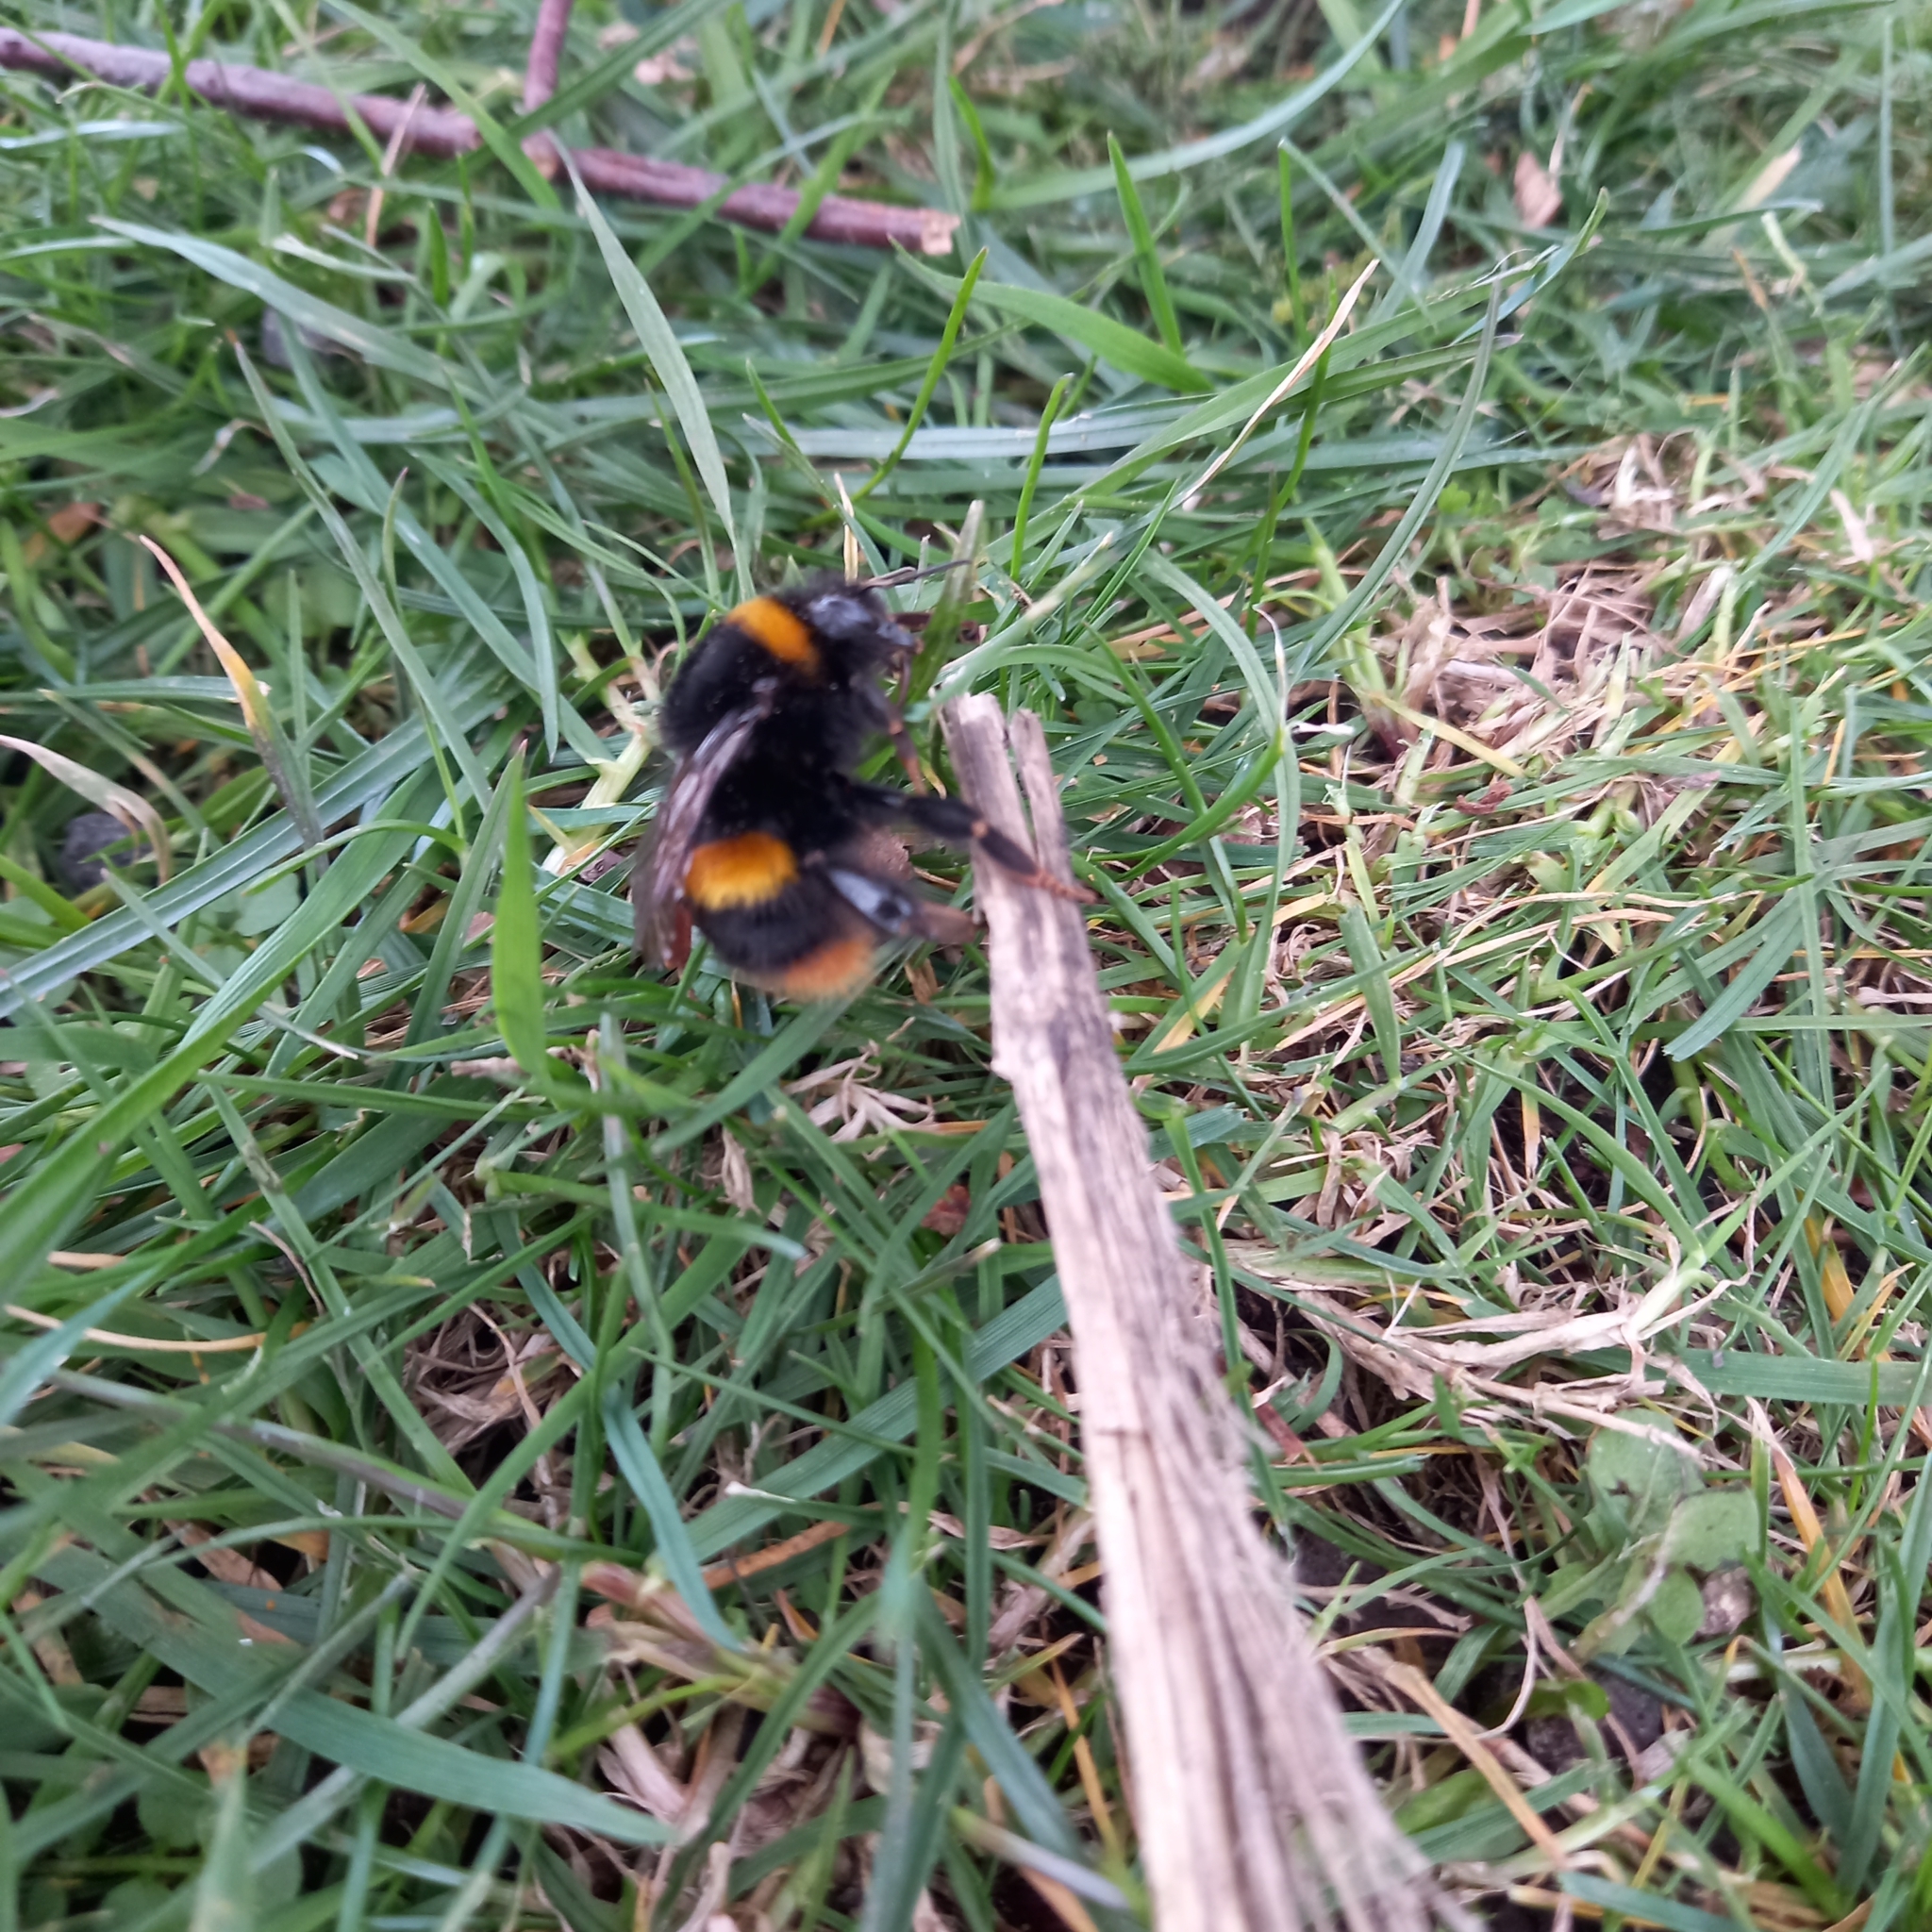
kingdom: Animalia
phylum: Arthropoda
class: Insecta
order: Hymenoptera
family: Apidae
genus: Bombus
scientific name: Bombus terrestris
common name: Buff-tailed bumblebee
